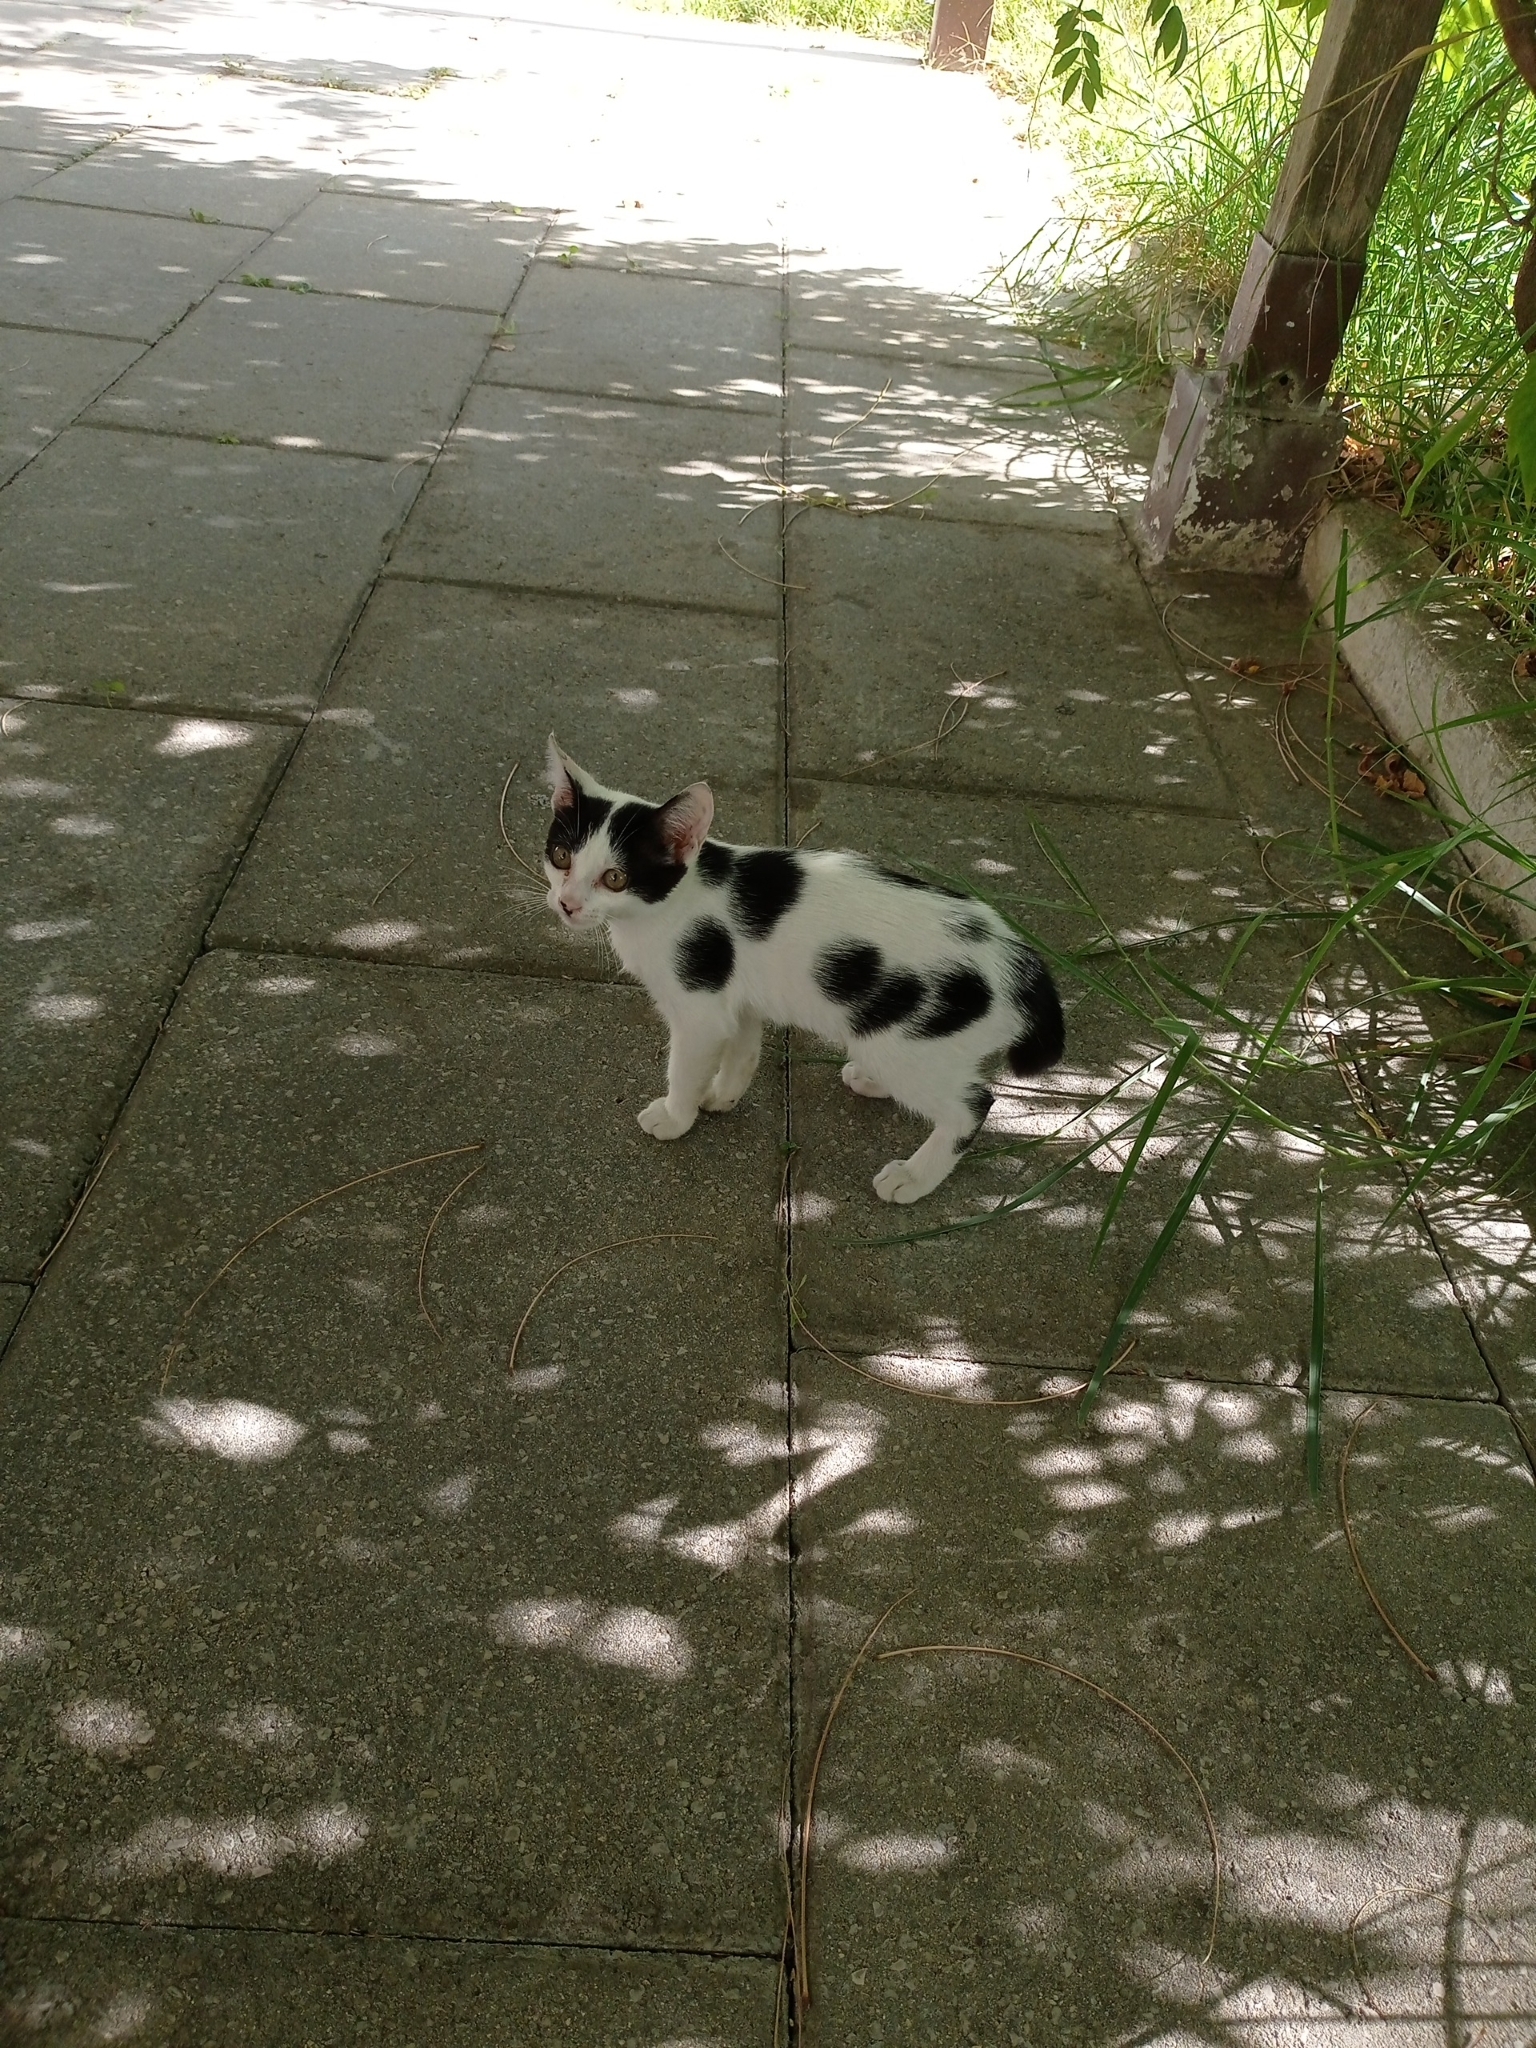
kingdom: Animalia
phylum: Chordata
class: Mammalia
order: Carnivora
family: Felidae
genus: Felis
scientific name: Felis catus
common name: Domestic cat
